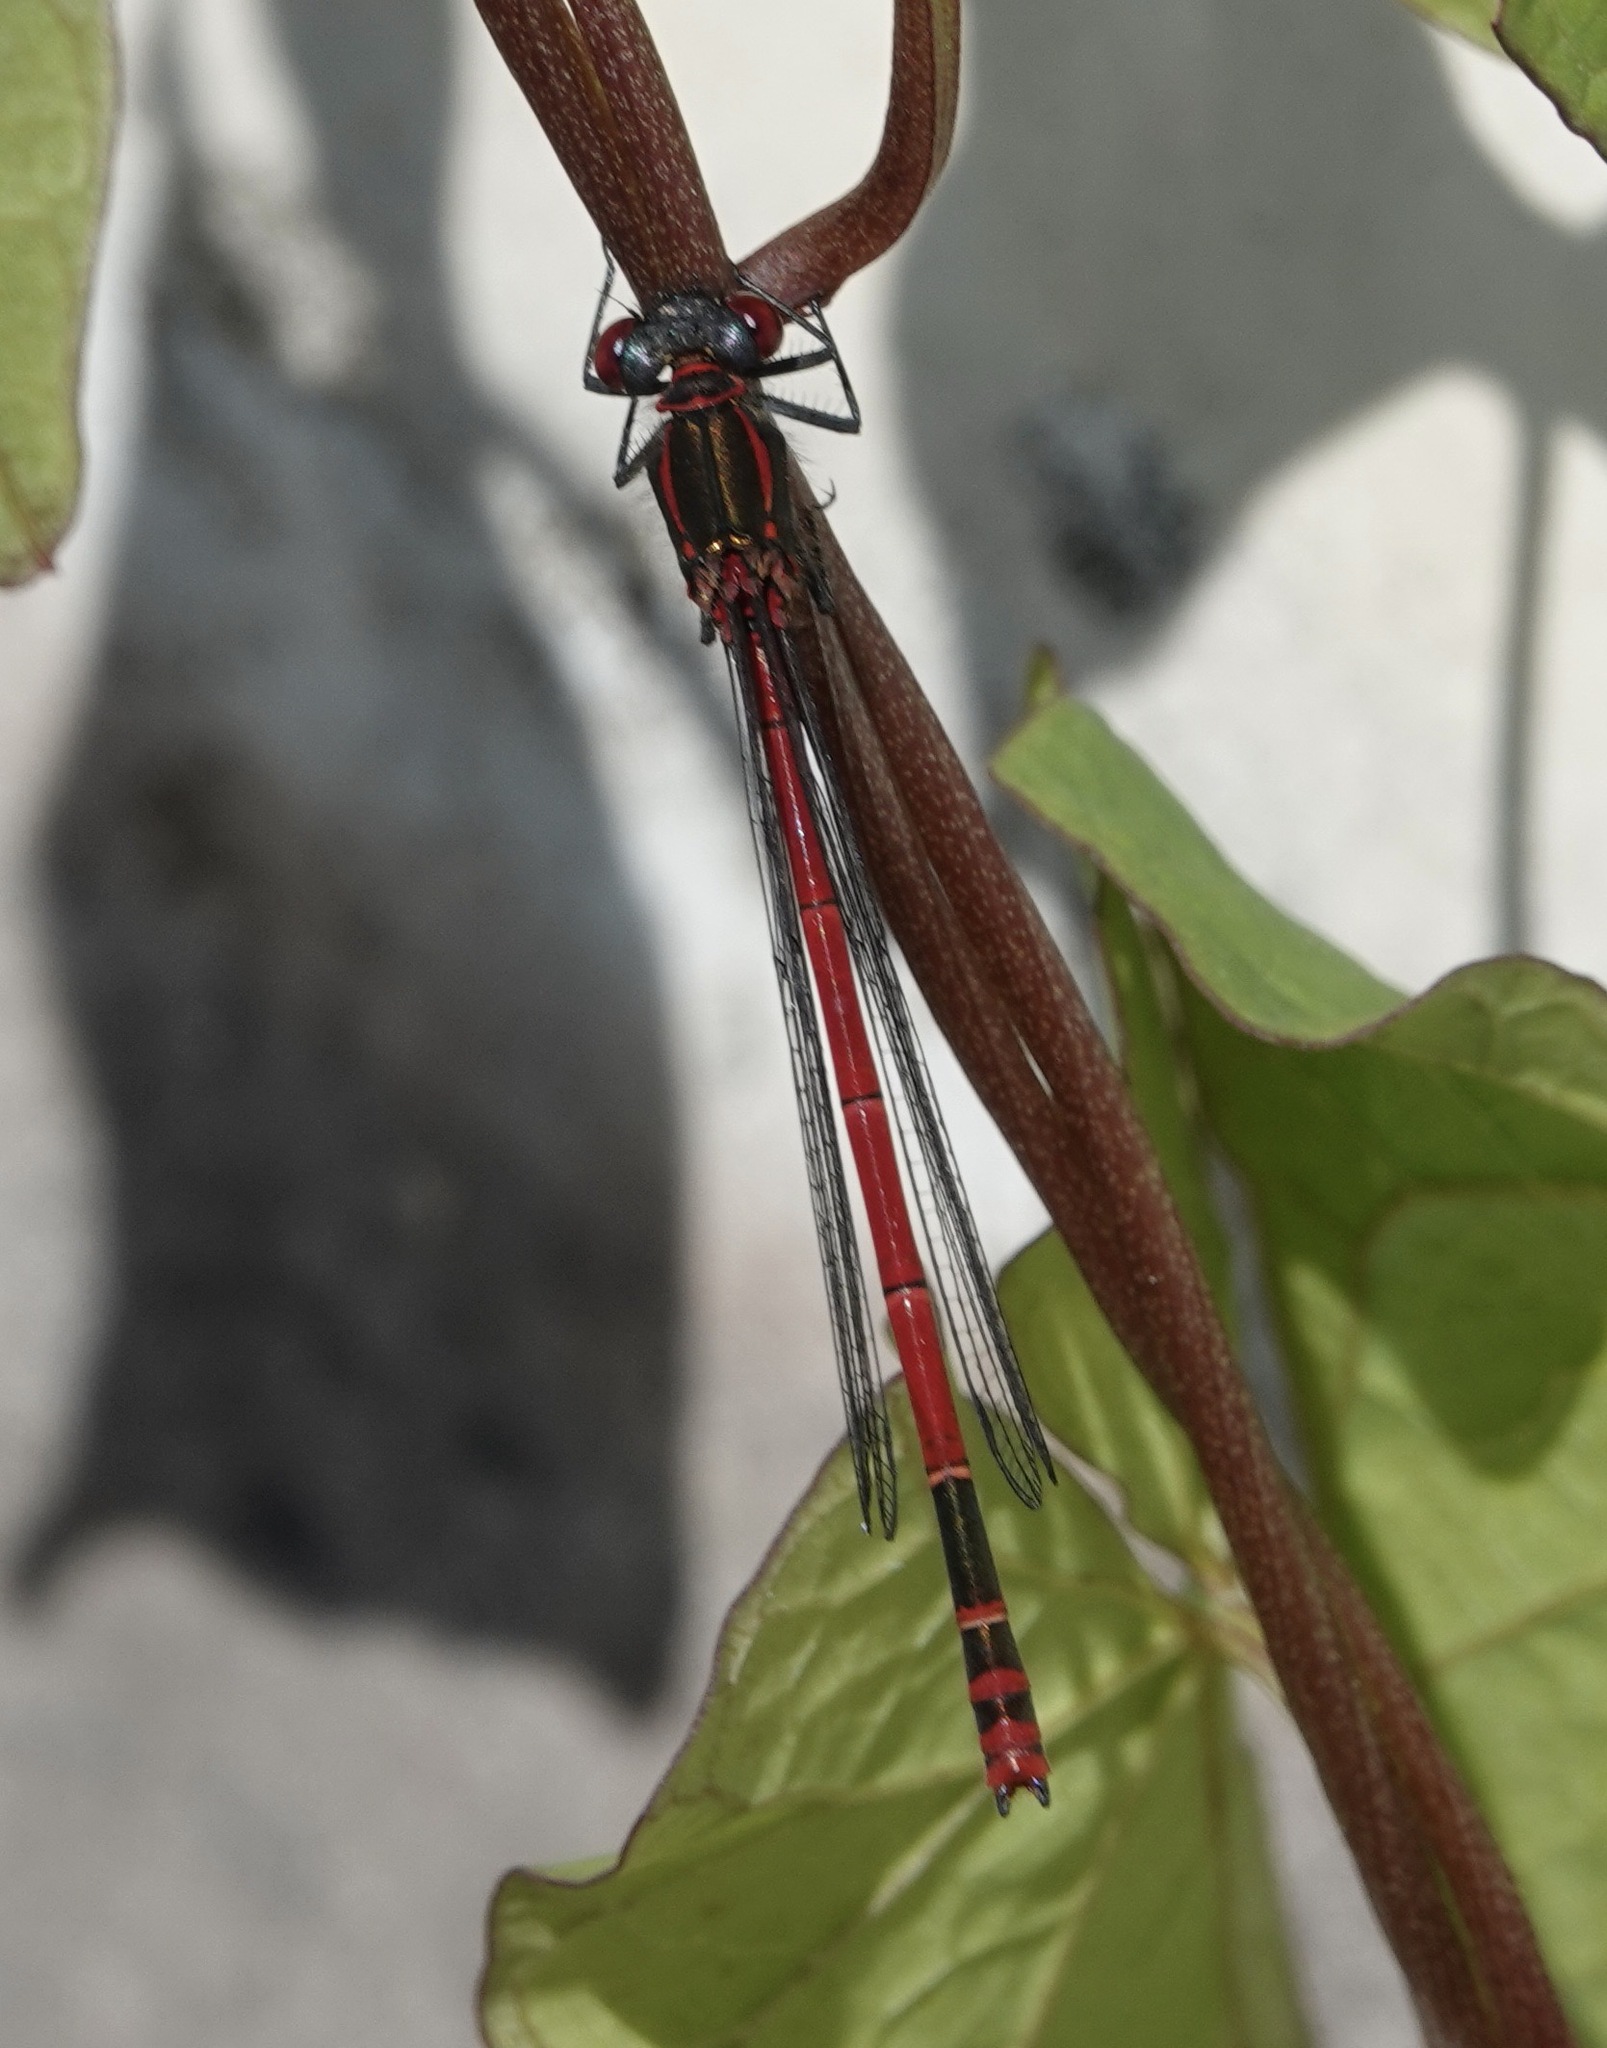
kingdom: Animalia
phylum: Arthropoda
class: Insecta
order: Odonata
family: Coenagrionidae
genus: Pyrrhosoma
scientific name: Pyrrhosoma nymphula
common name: Large red damsel
